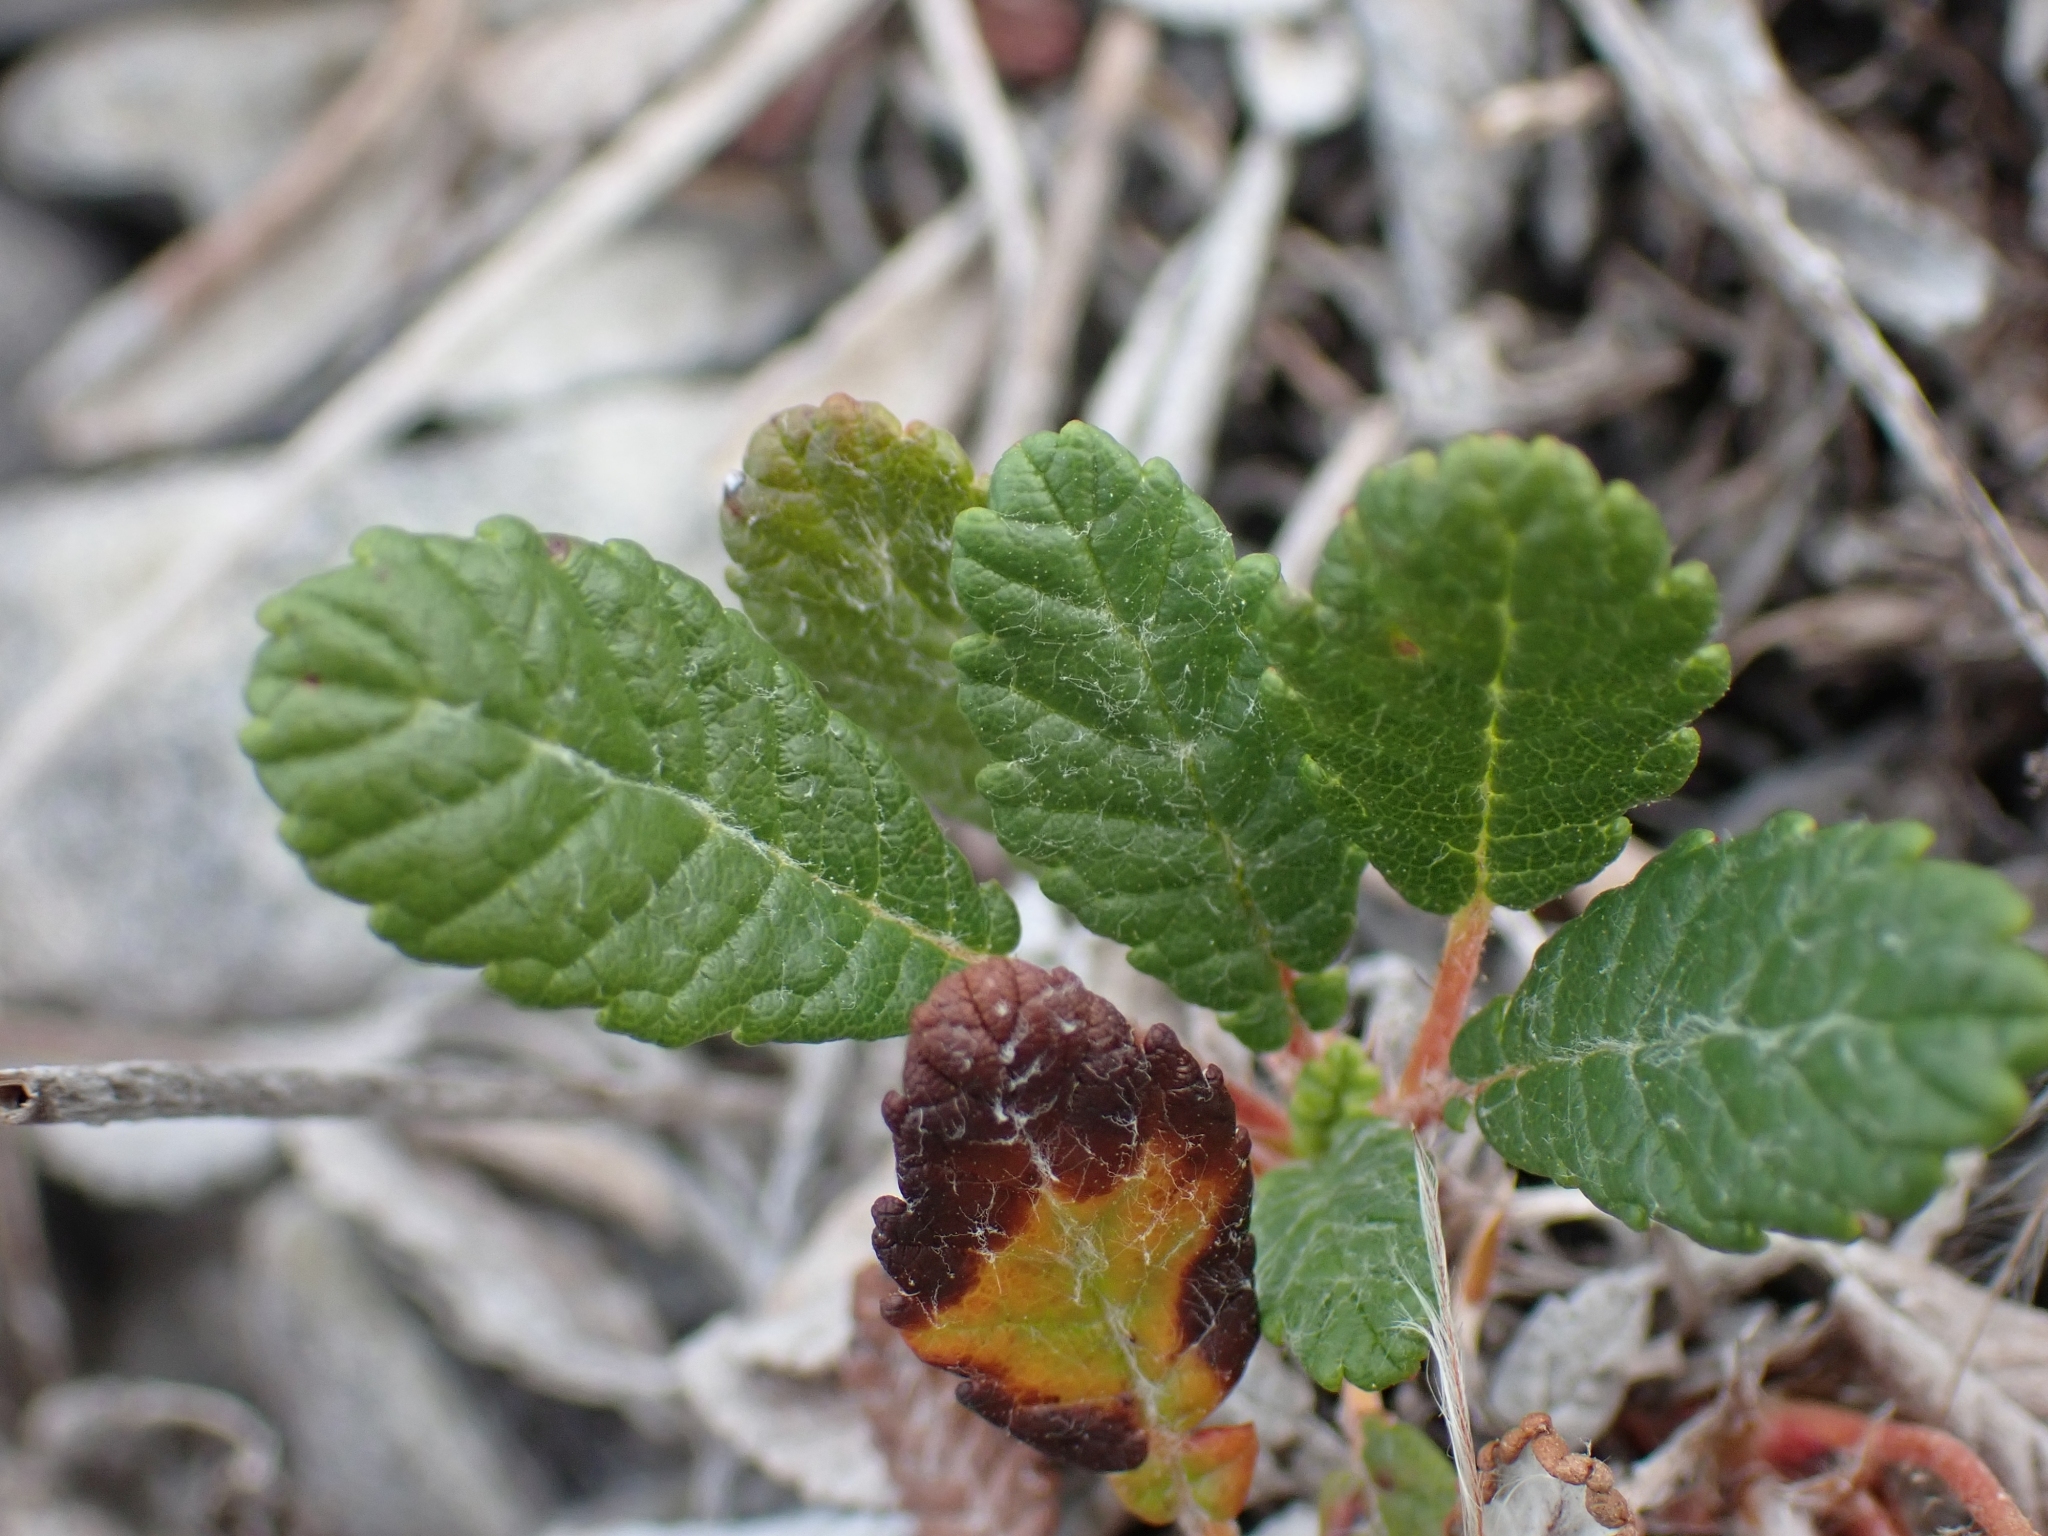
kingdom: Plantae
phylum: Tracheophyta
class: Magnoliopsida
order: Rosales
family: Rosaceae
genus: Dryas
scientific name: Dryas drummondii
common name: Drummond's dryad
